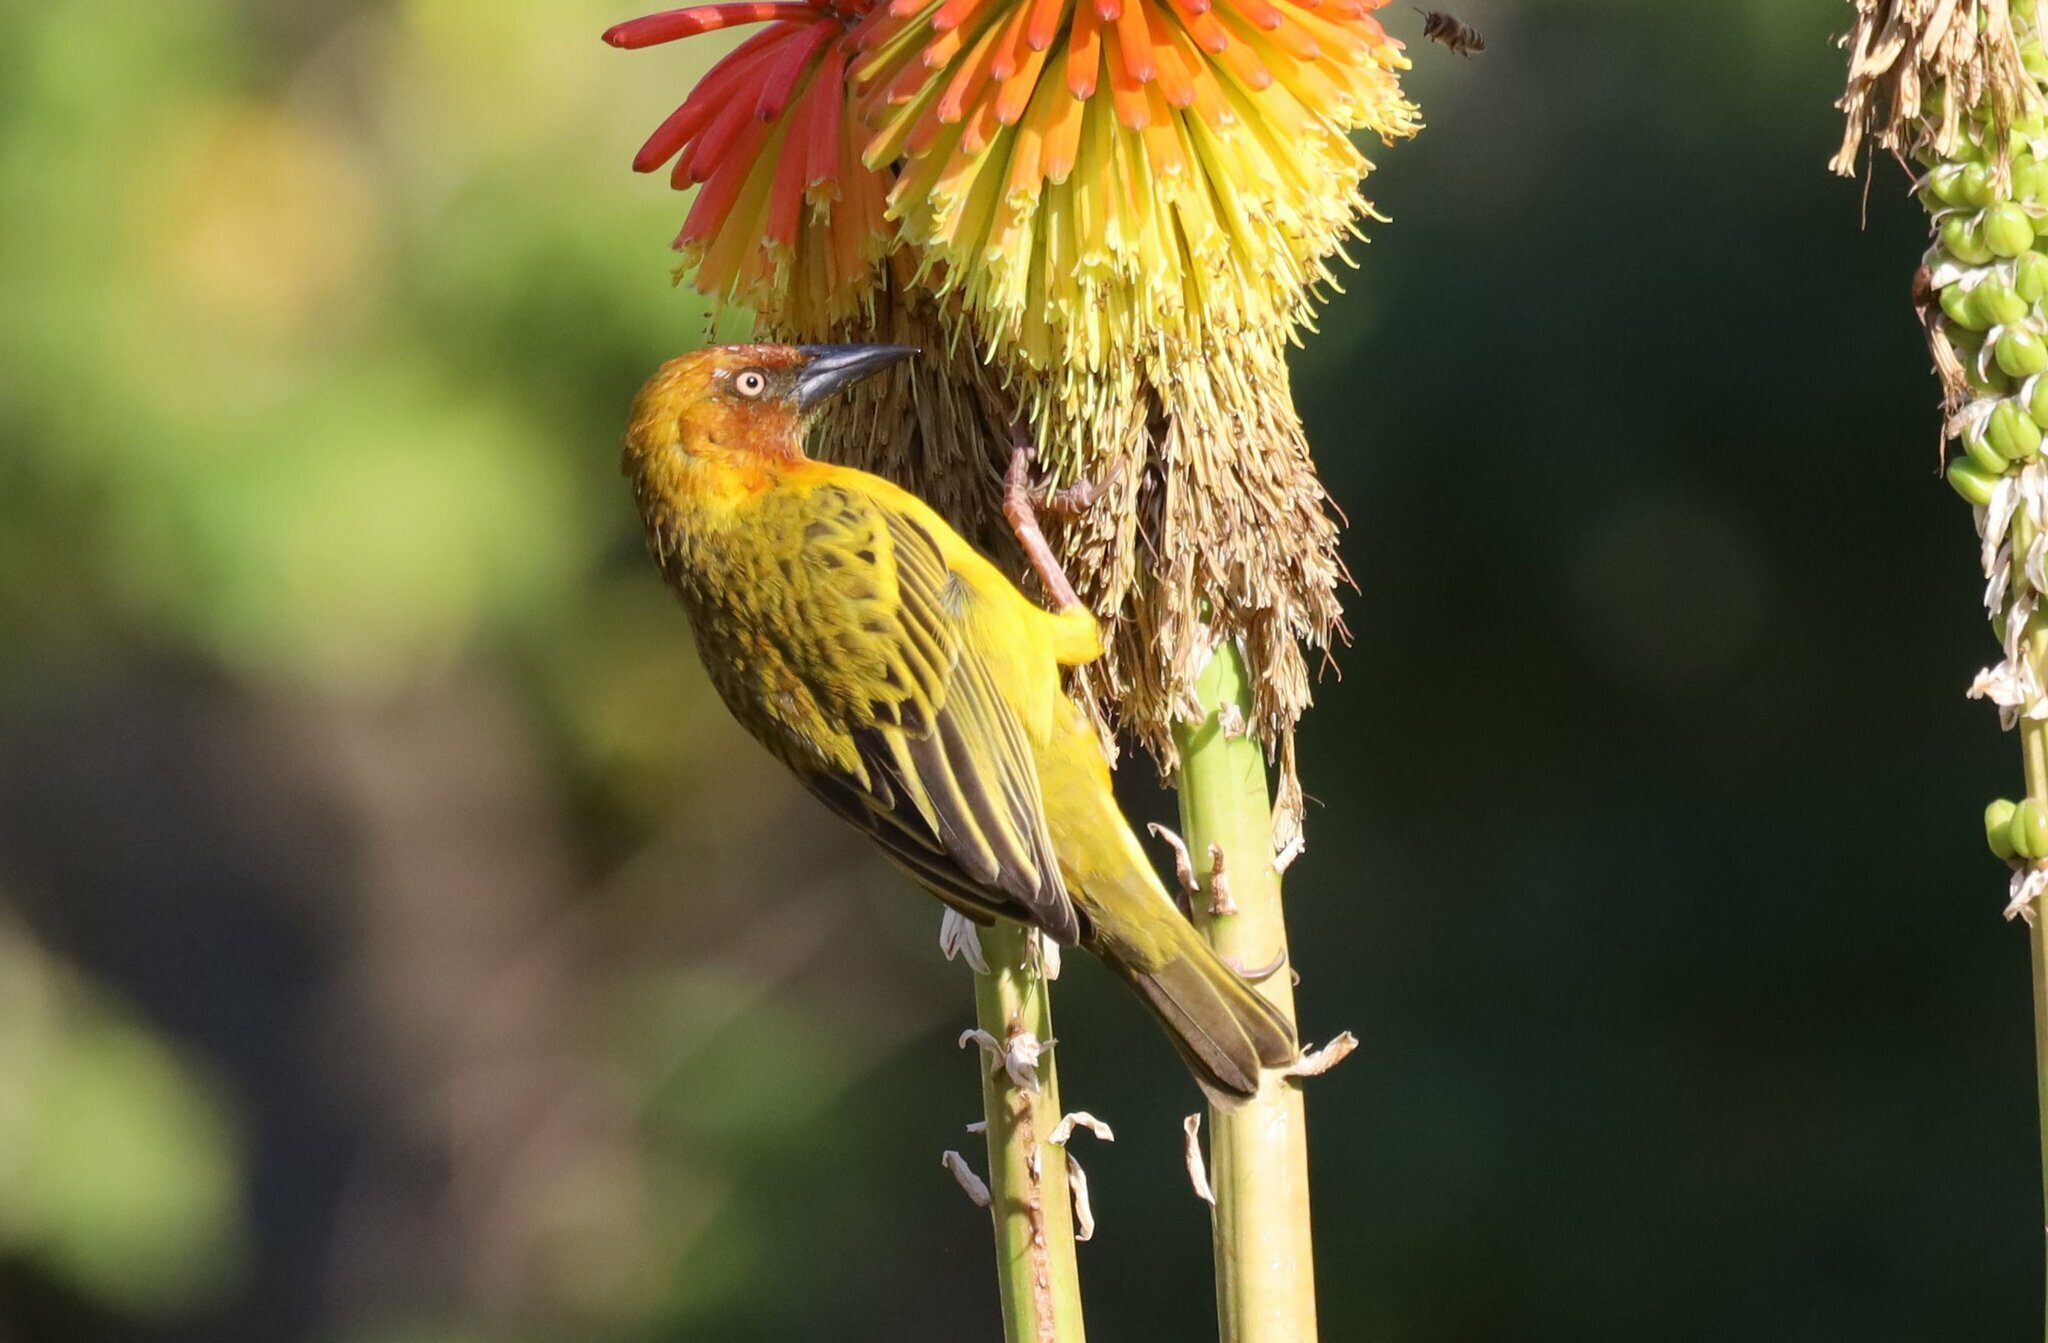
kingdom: Animalia
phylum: Chordata
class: Aves
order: Passeriformes
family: Ploceidae
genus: Ploceus
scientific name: Ploceus capensis
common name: Cape weaver
